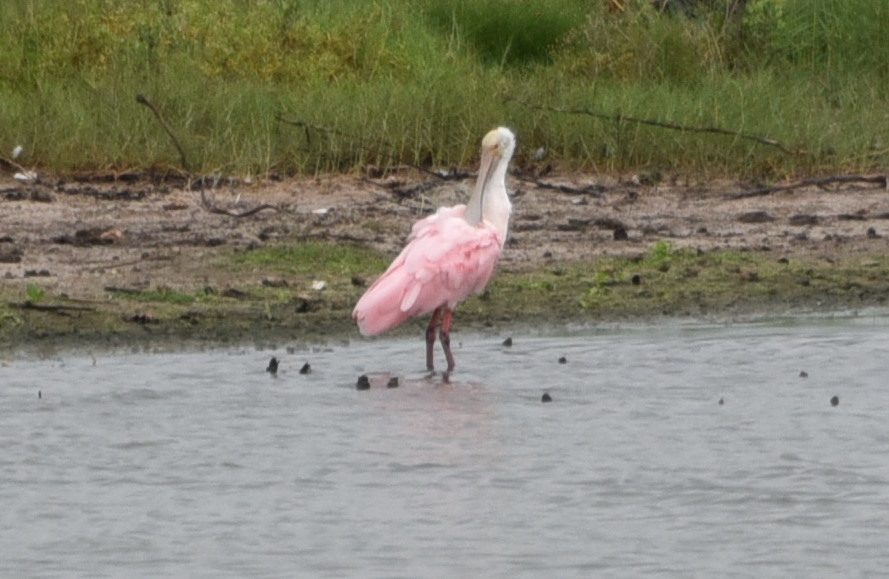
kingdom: Animalia
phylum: Chordata
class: Aves
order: Pelecaniformes
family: Threskiornithidae
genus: Platalea
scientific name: Platalea ajaja
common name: Roseate spoonbill
